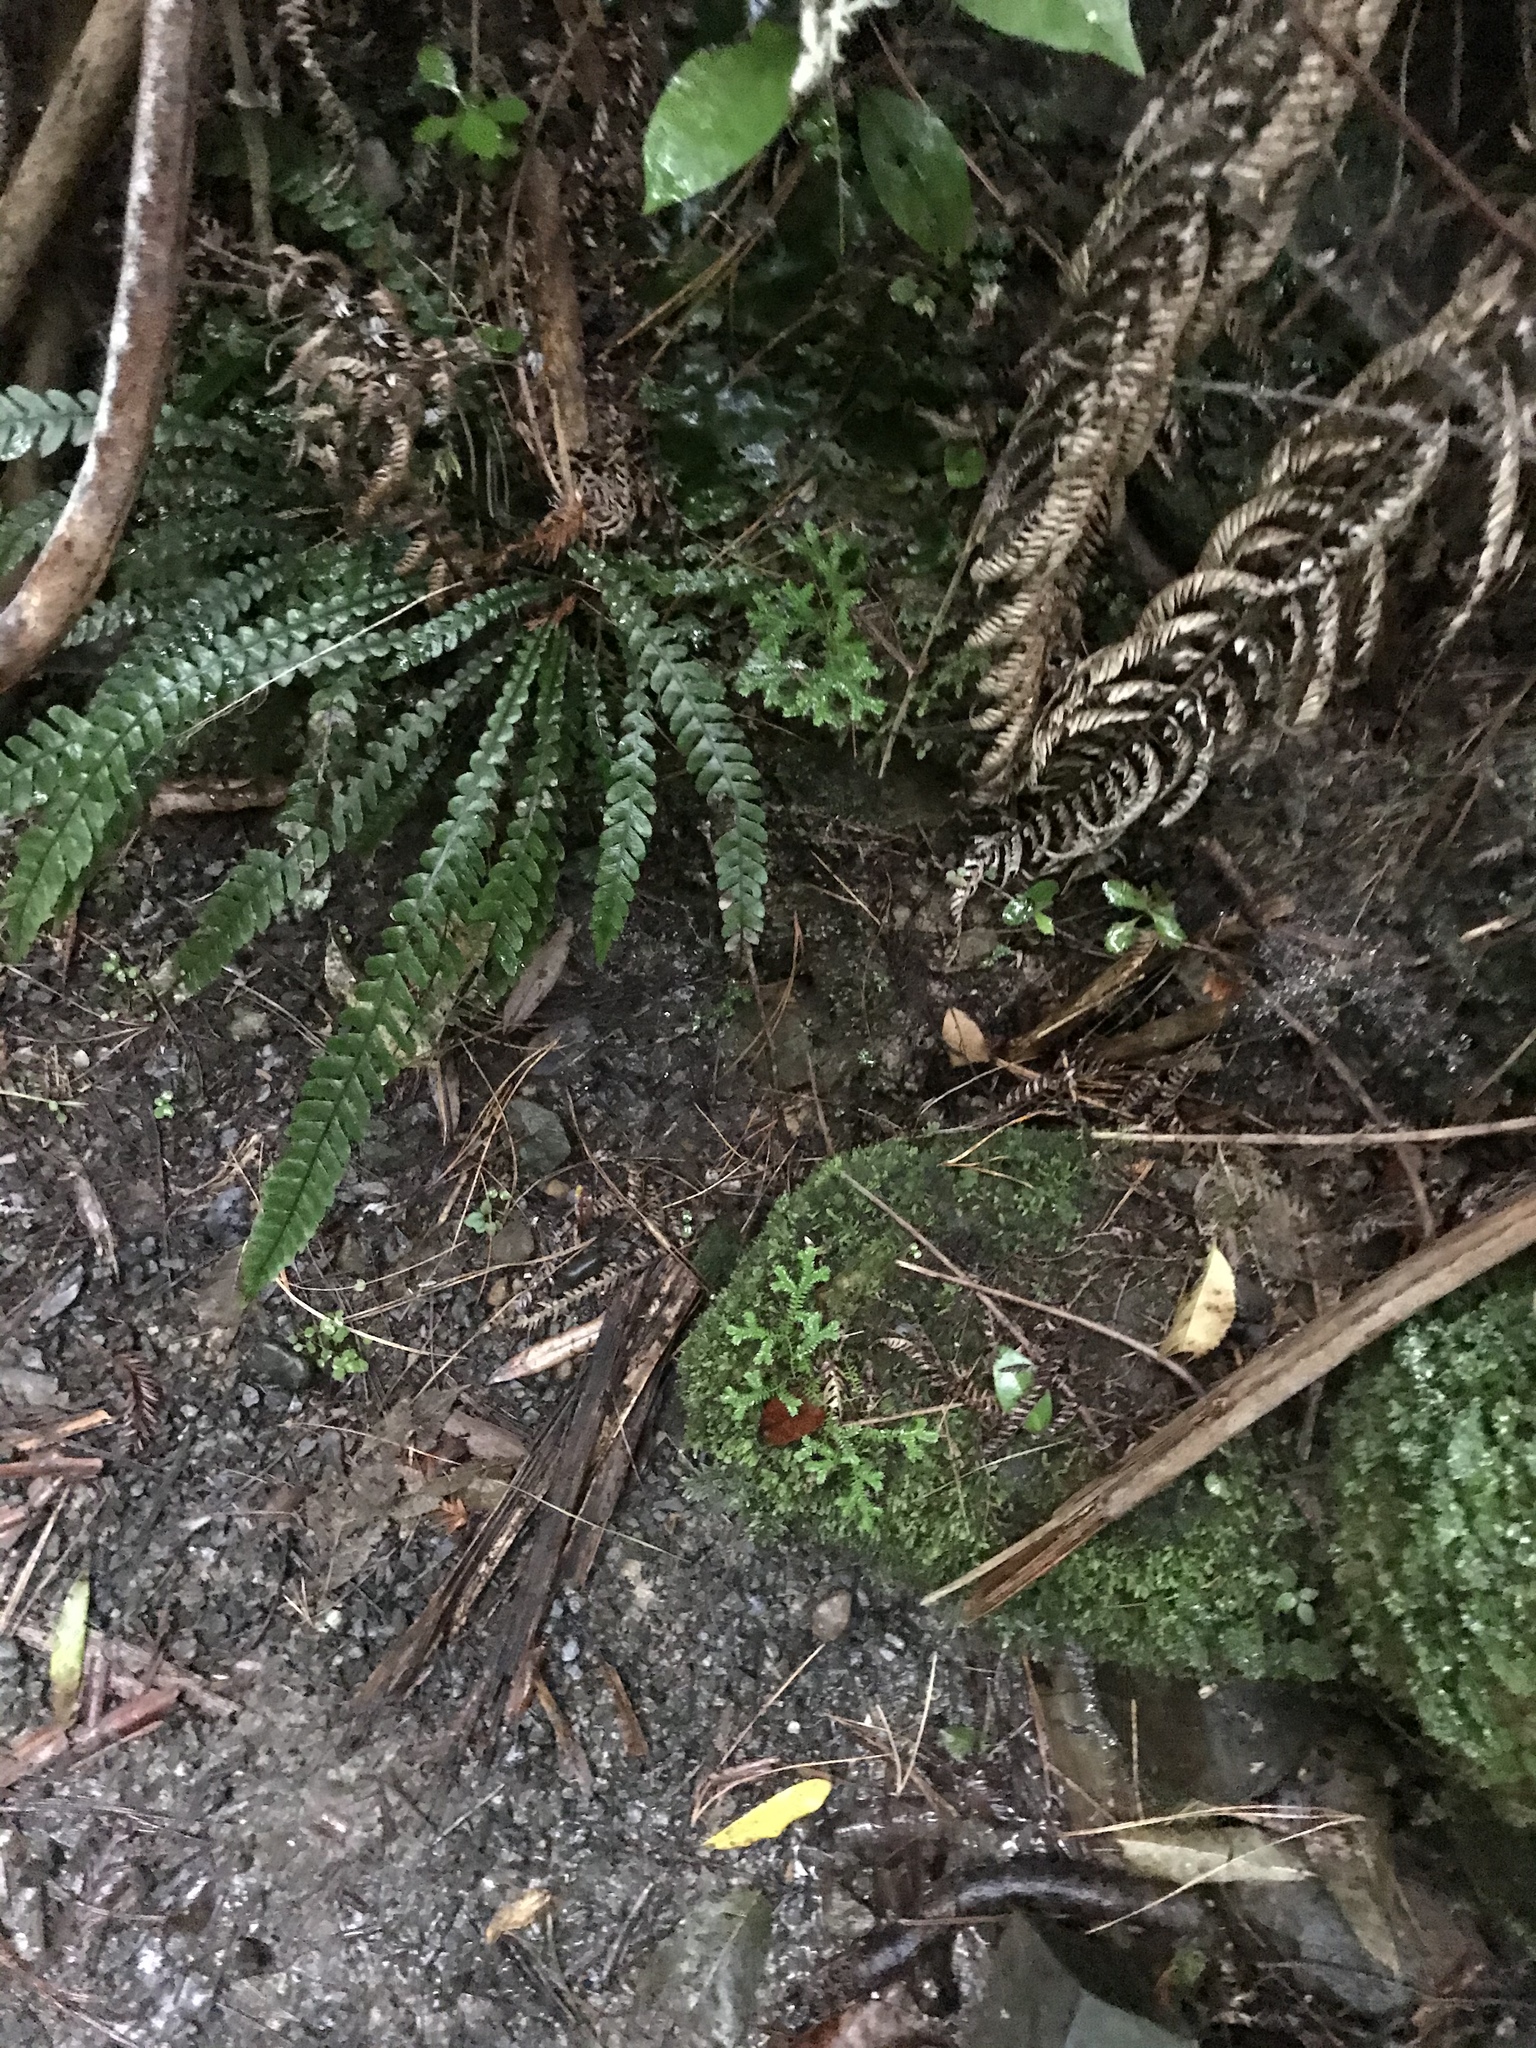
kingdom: Plantae
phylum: Tracheophyta
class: Lycopodiopsida
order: Selaginellales
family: Selaginellaceae
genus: Selaginella
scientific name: Selaginella kraussiana
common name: Krauss' spikemoss
